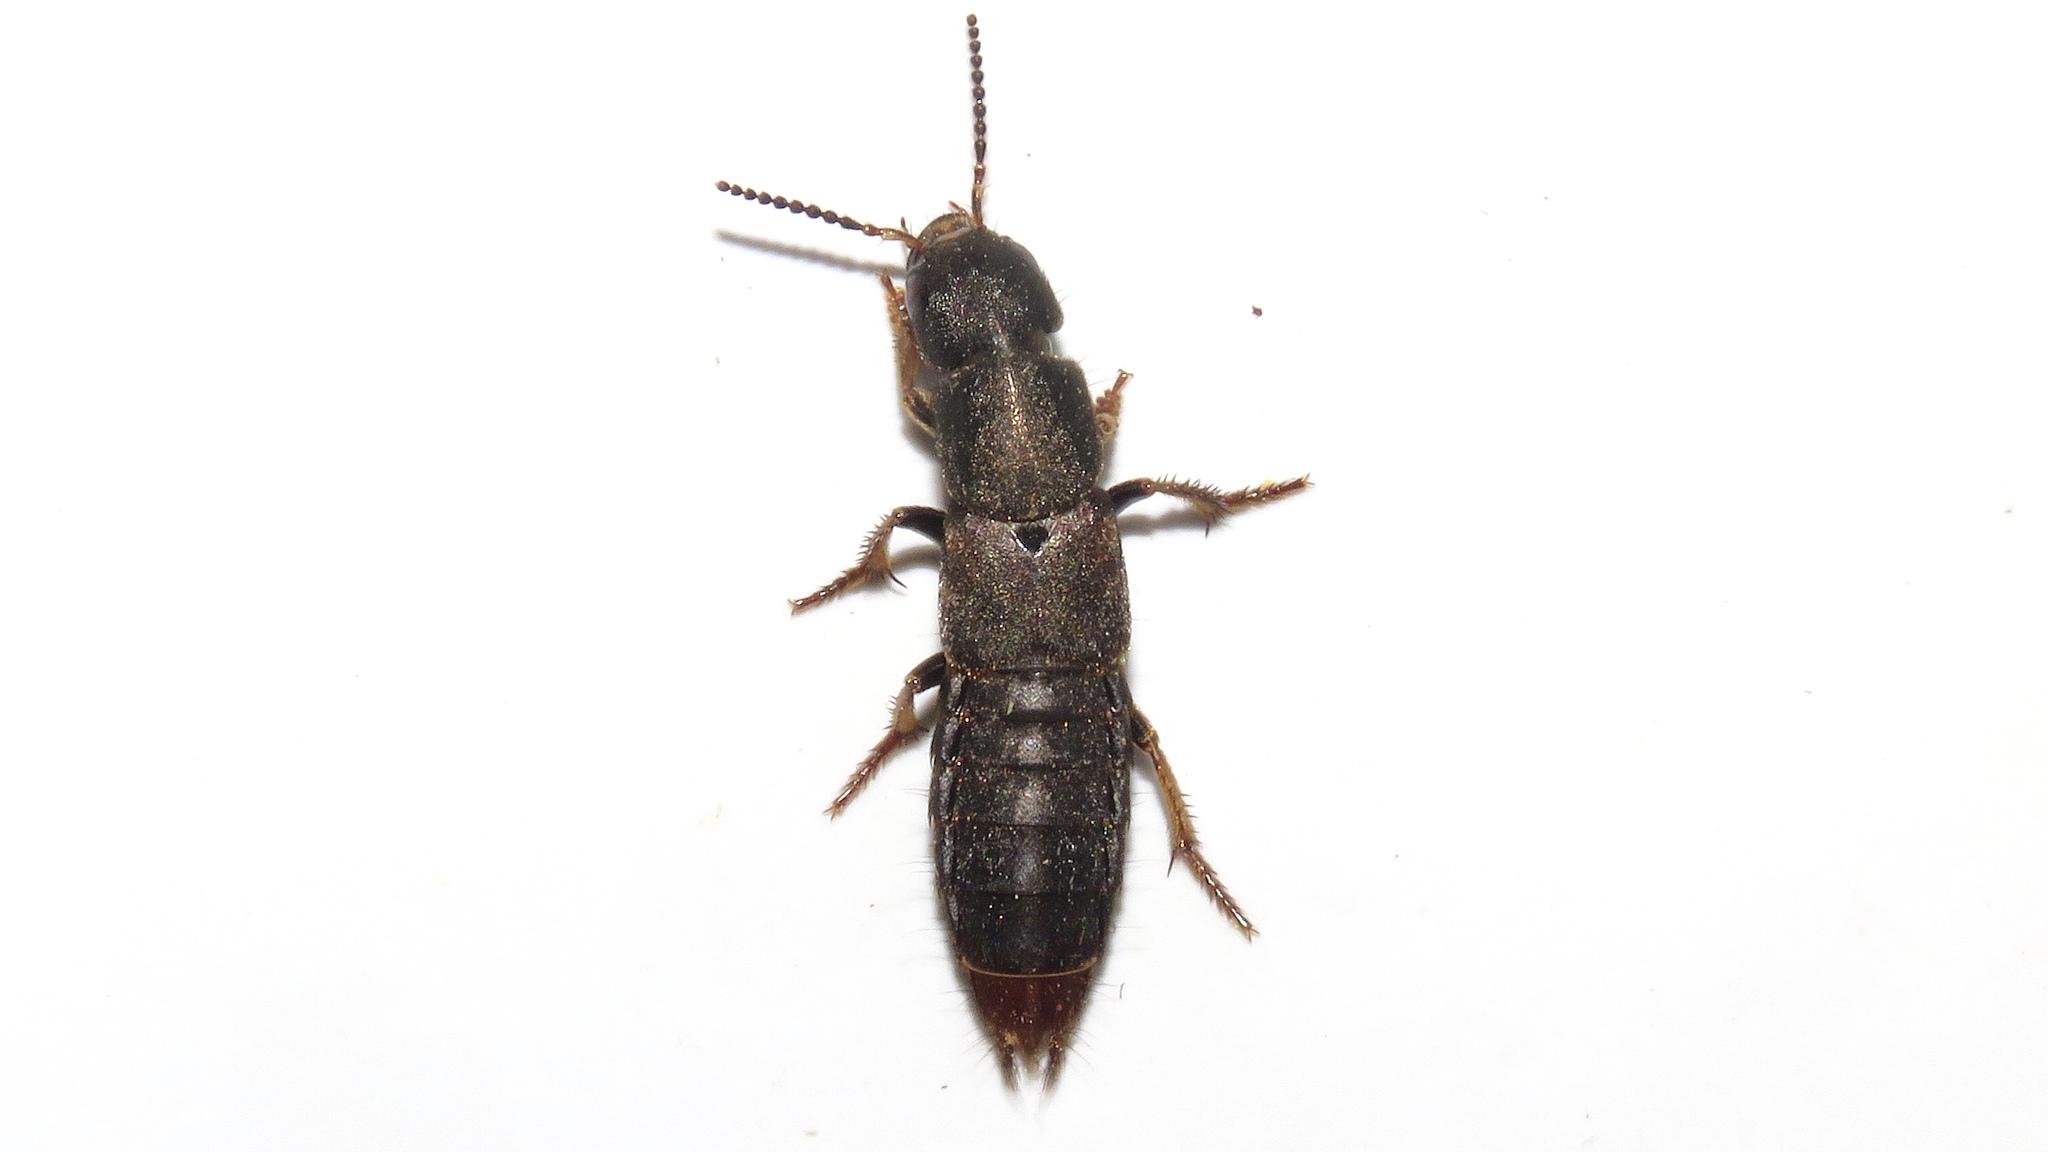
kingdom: Animalia
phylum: Arthropoda
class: Insecta
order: Coleoptera
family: Staphylinidae
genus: Platydracus
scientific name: Platydracus mysticus
